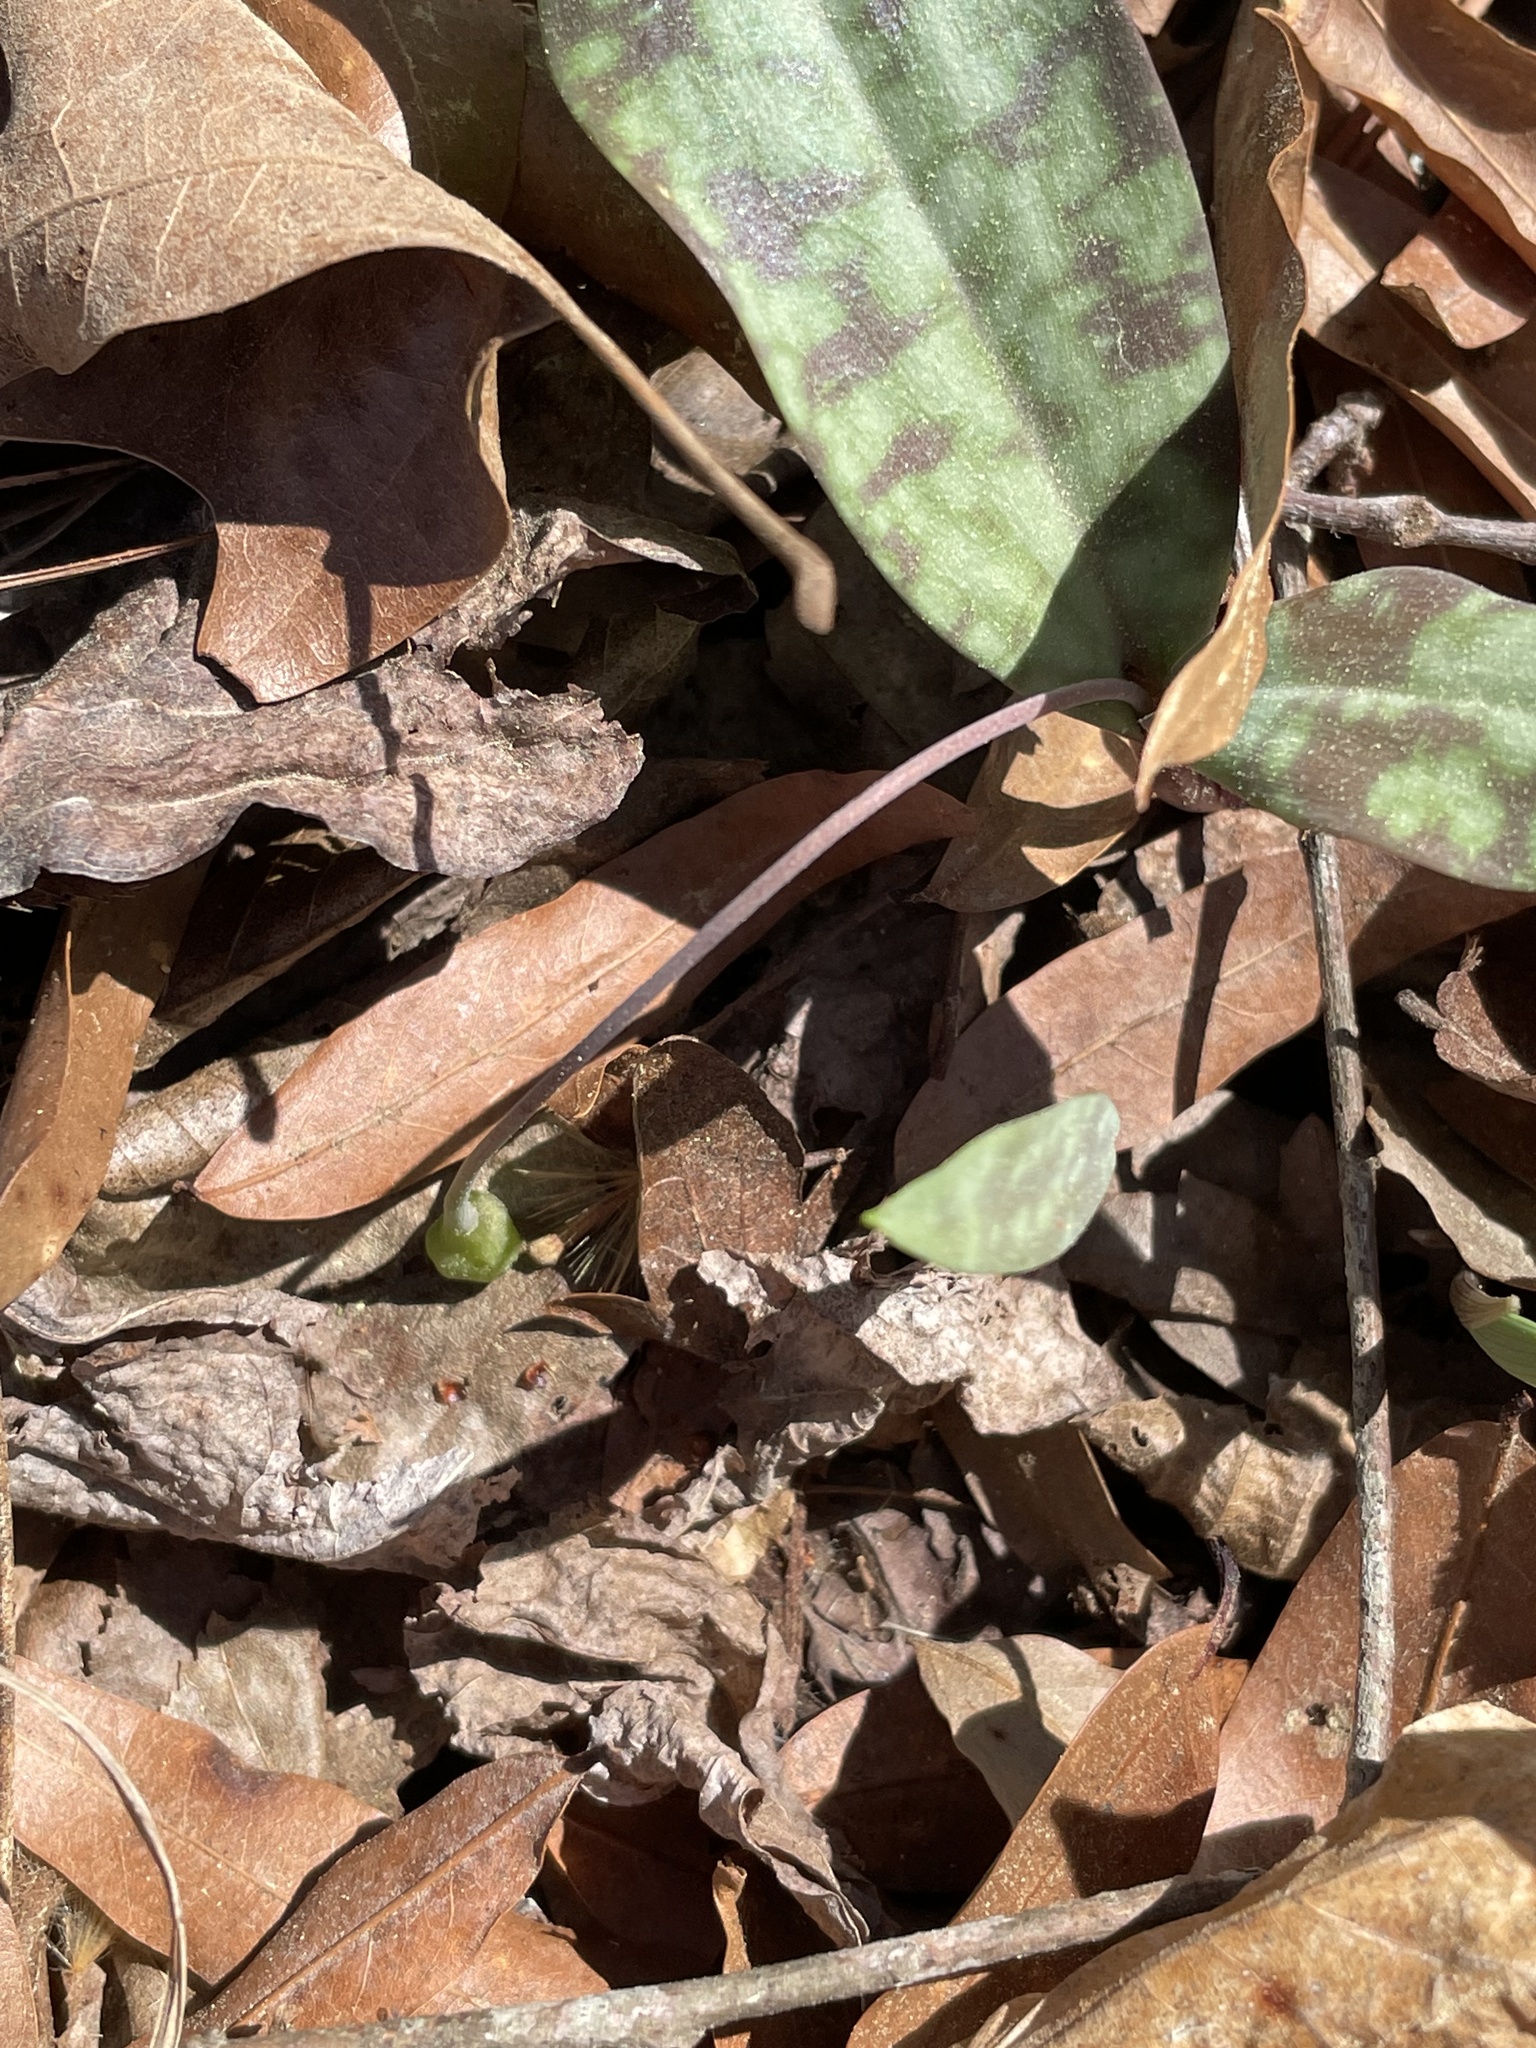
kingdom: Plantae
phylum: Tracheophyta
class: Liliopsida
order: Liliales
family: Liliaceae
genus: Erythronium
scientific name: Erythronium umbilicatum
